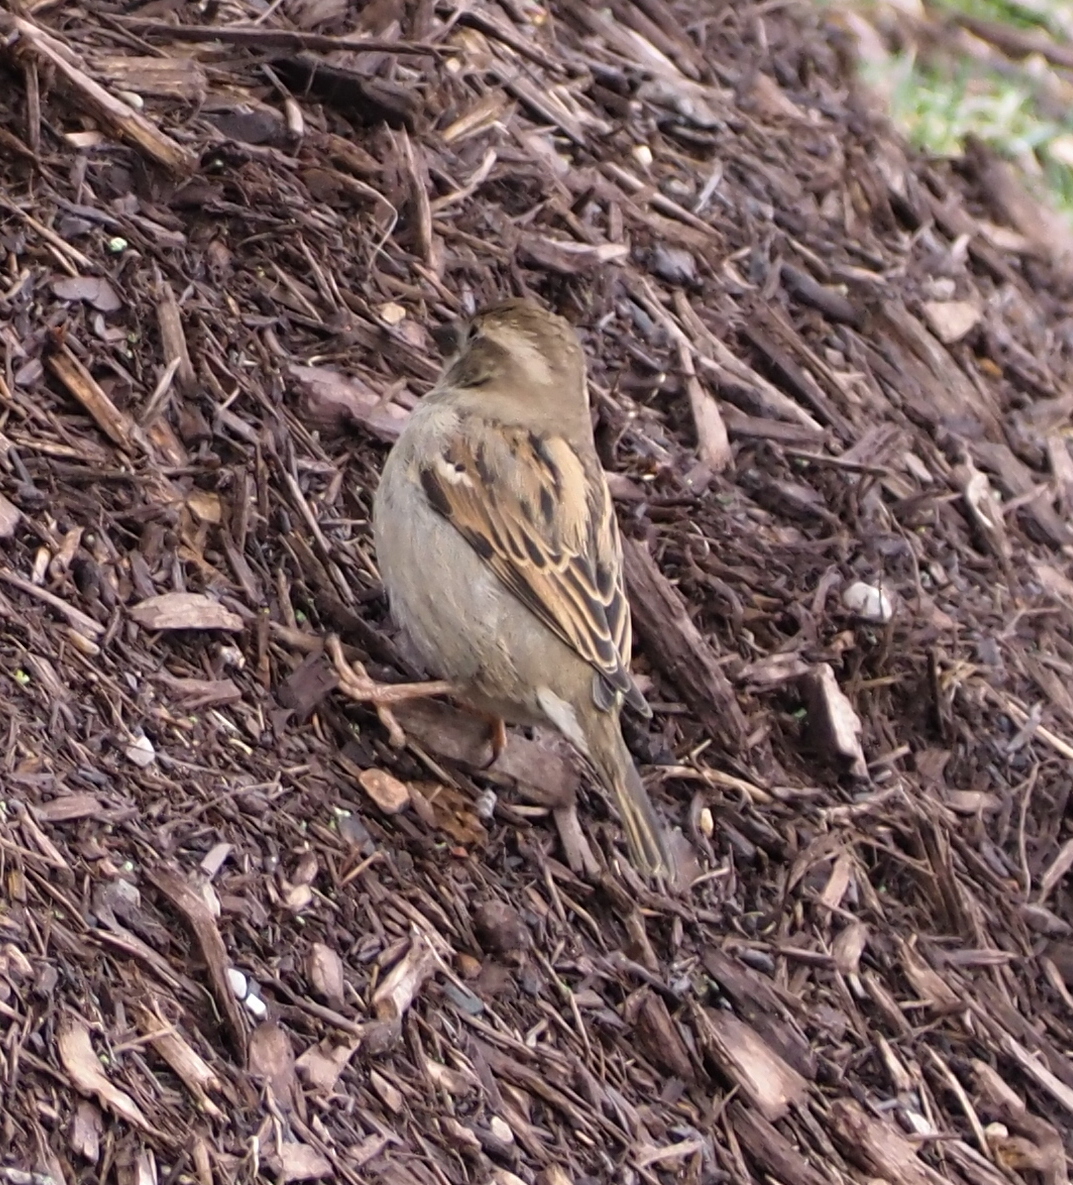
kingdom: Animalia
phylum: Chordata
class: Aves
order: Passeriformes
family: Passeridae
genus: Passer
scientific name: Passer domesticus
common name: House sparrow
